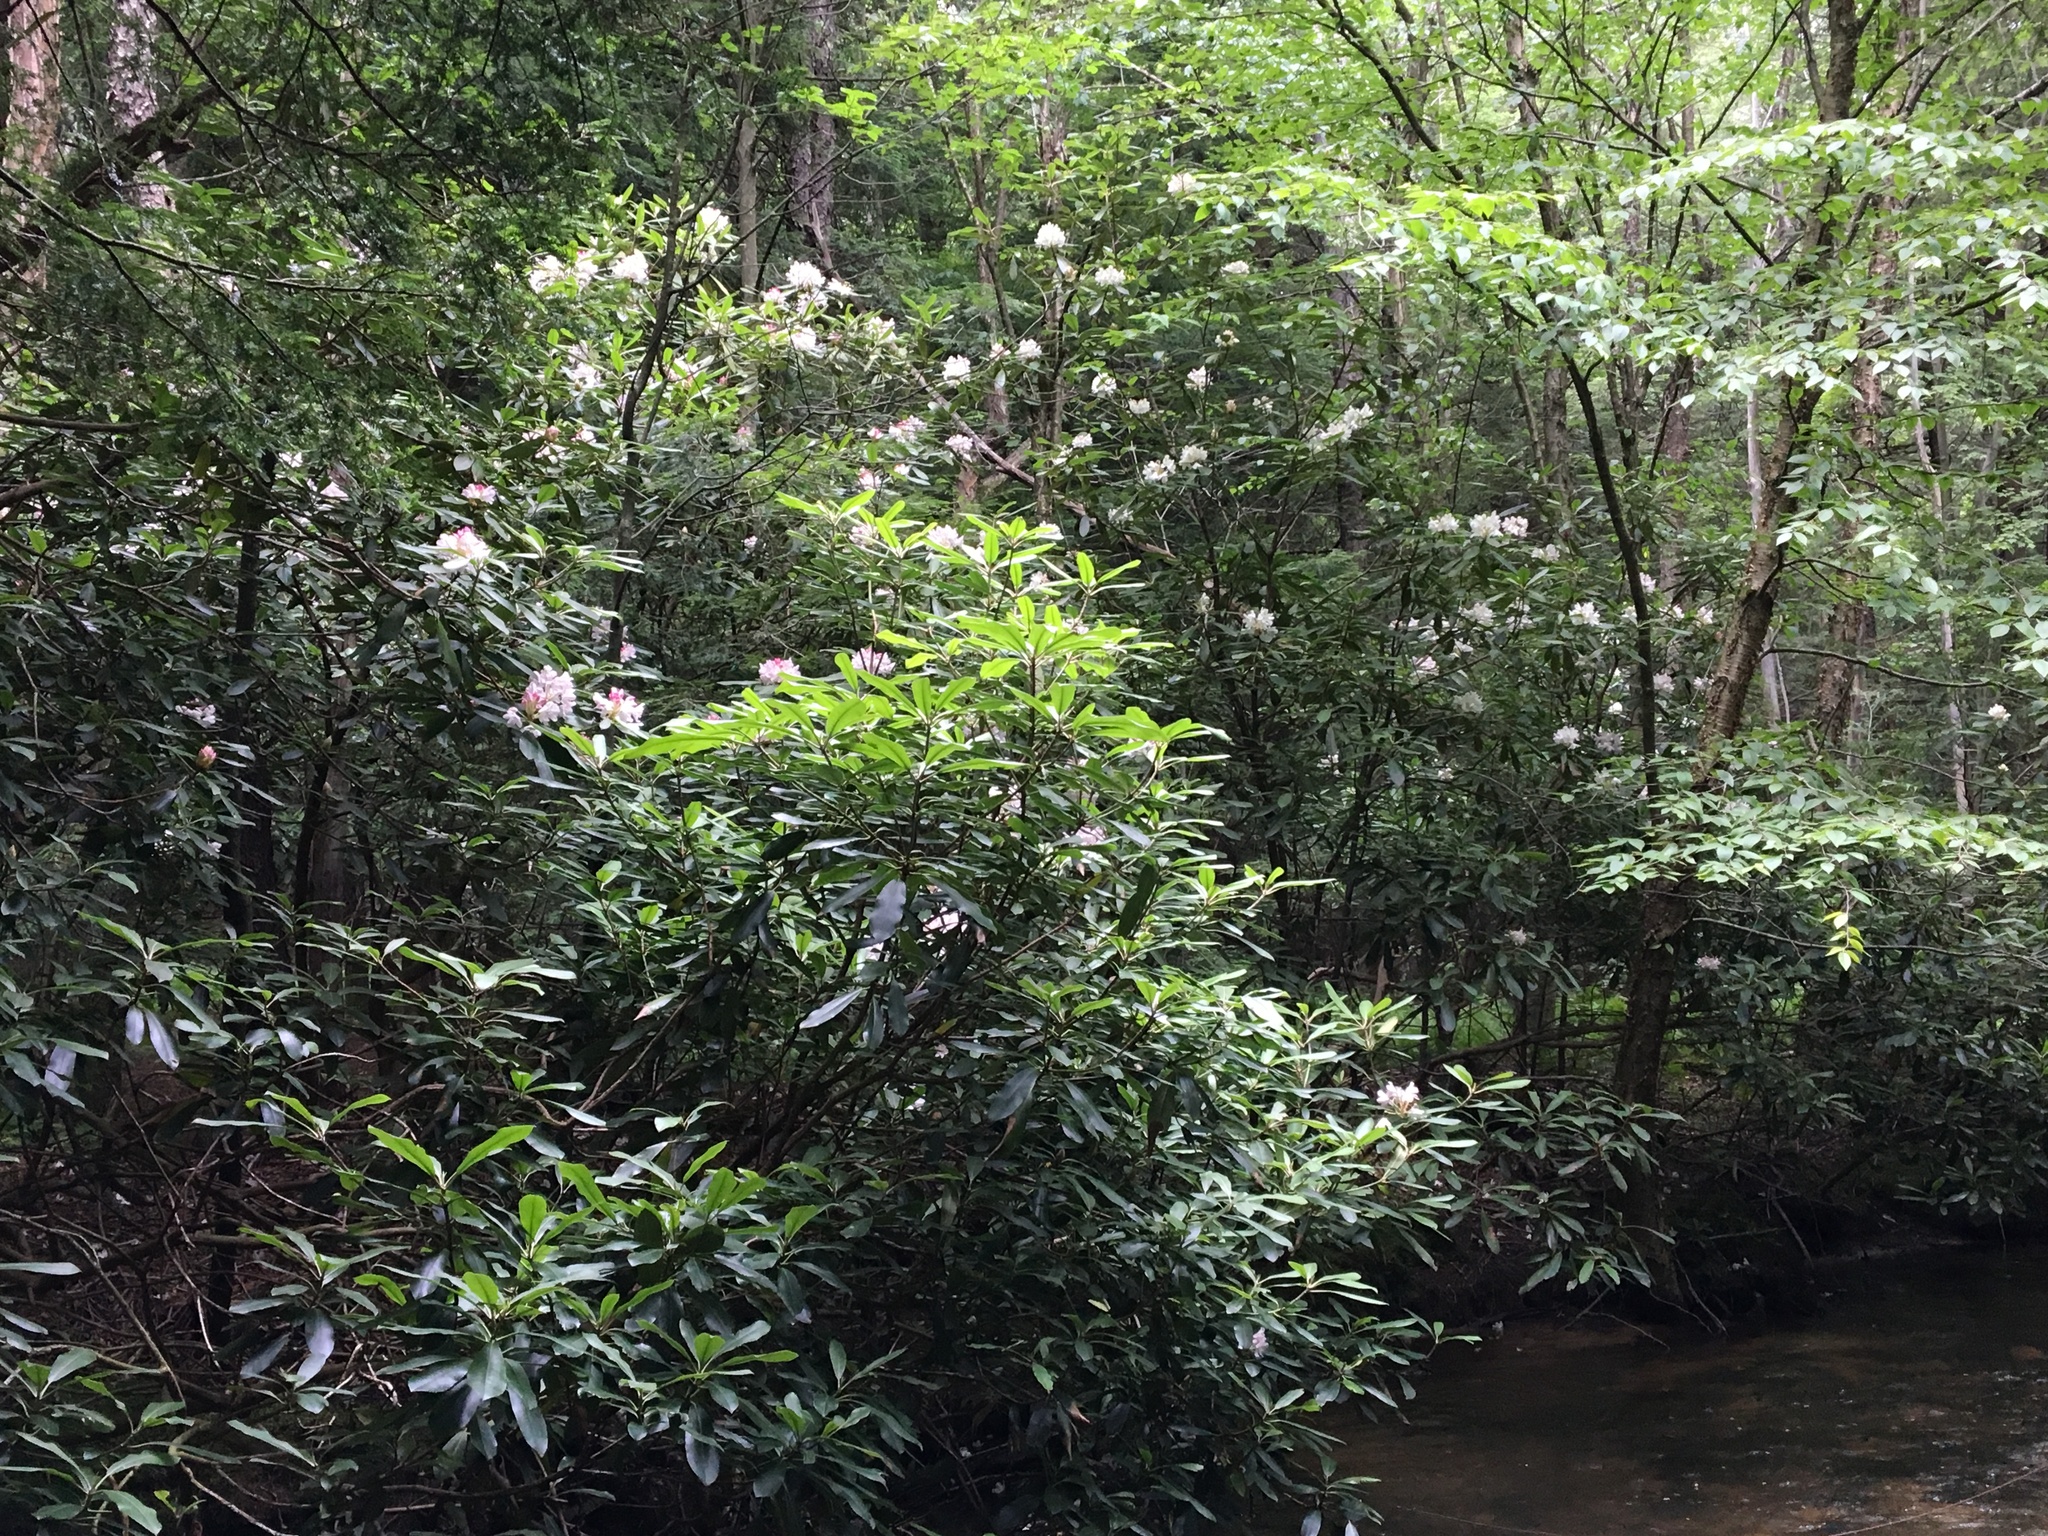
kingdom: Plantae
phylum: Tracheophyta
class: Magnoliopsida
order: Ericales
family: Ericaceae
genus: Rhododendron
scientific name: Rhododendron maximum
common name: Great rhododendron
